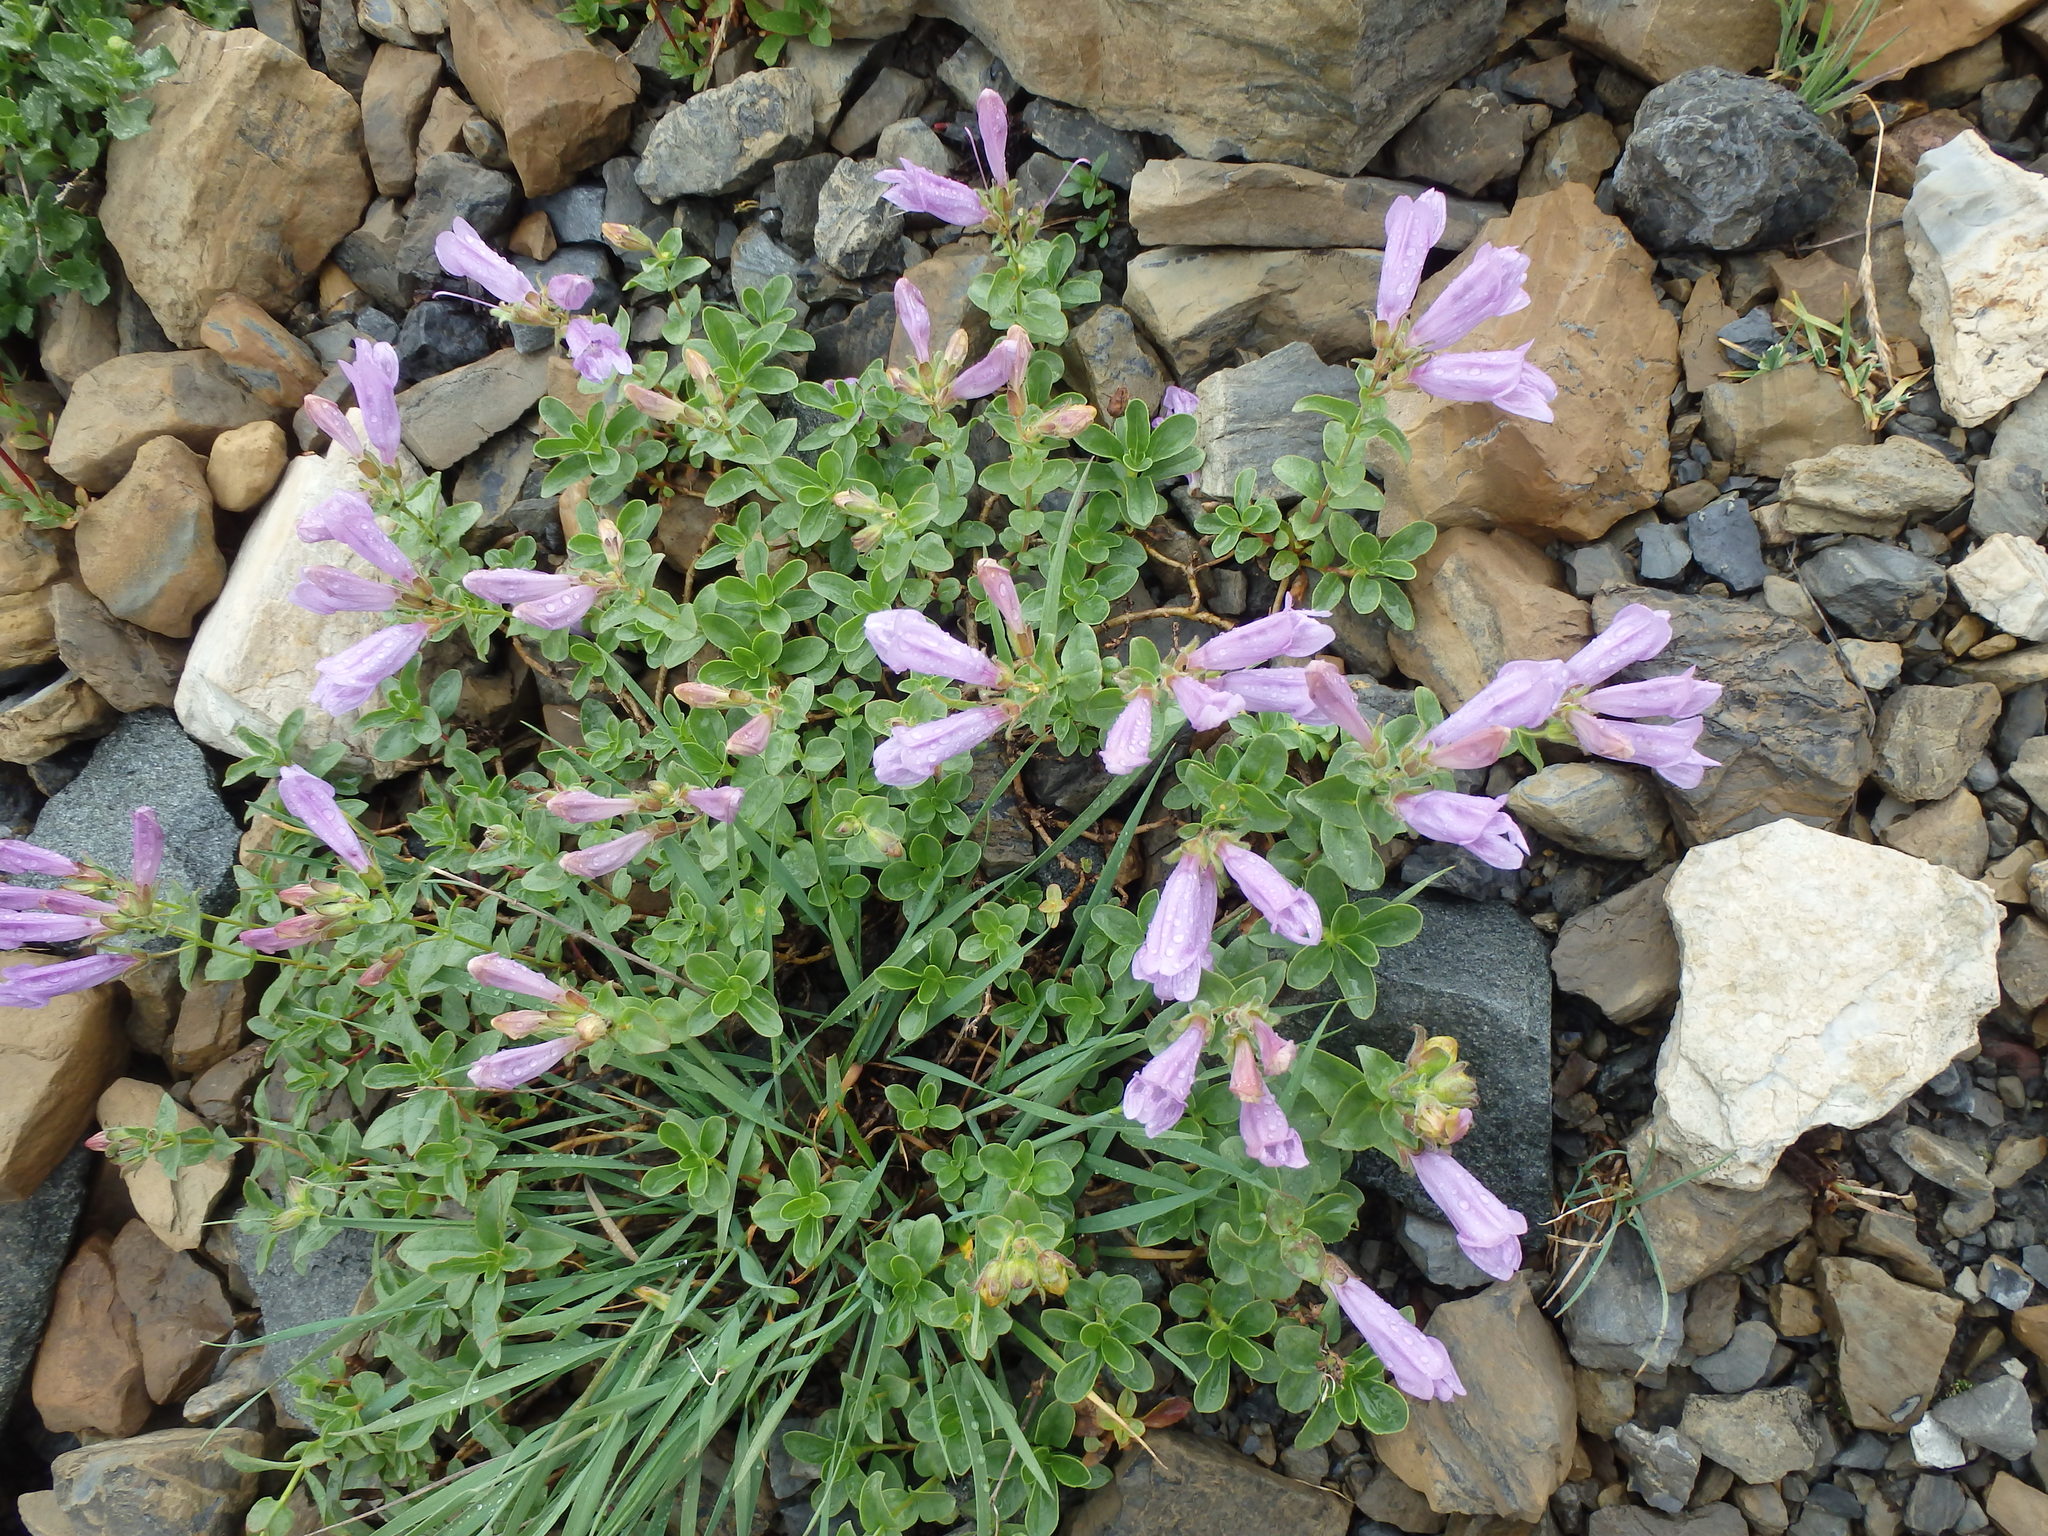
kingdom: Plantae
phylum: Tracheophyta
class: Magnoliopsida
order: Lamiales
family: Plantaginaceae
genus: Penstemon
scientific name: Penstemon ellipticus
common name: Alpine beardtongue
